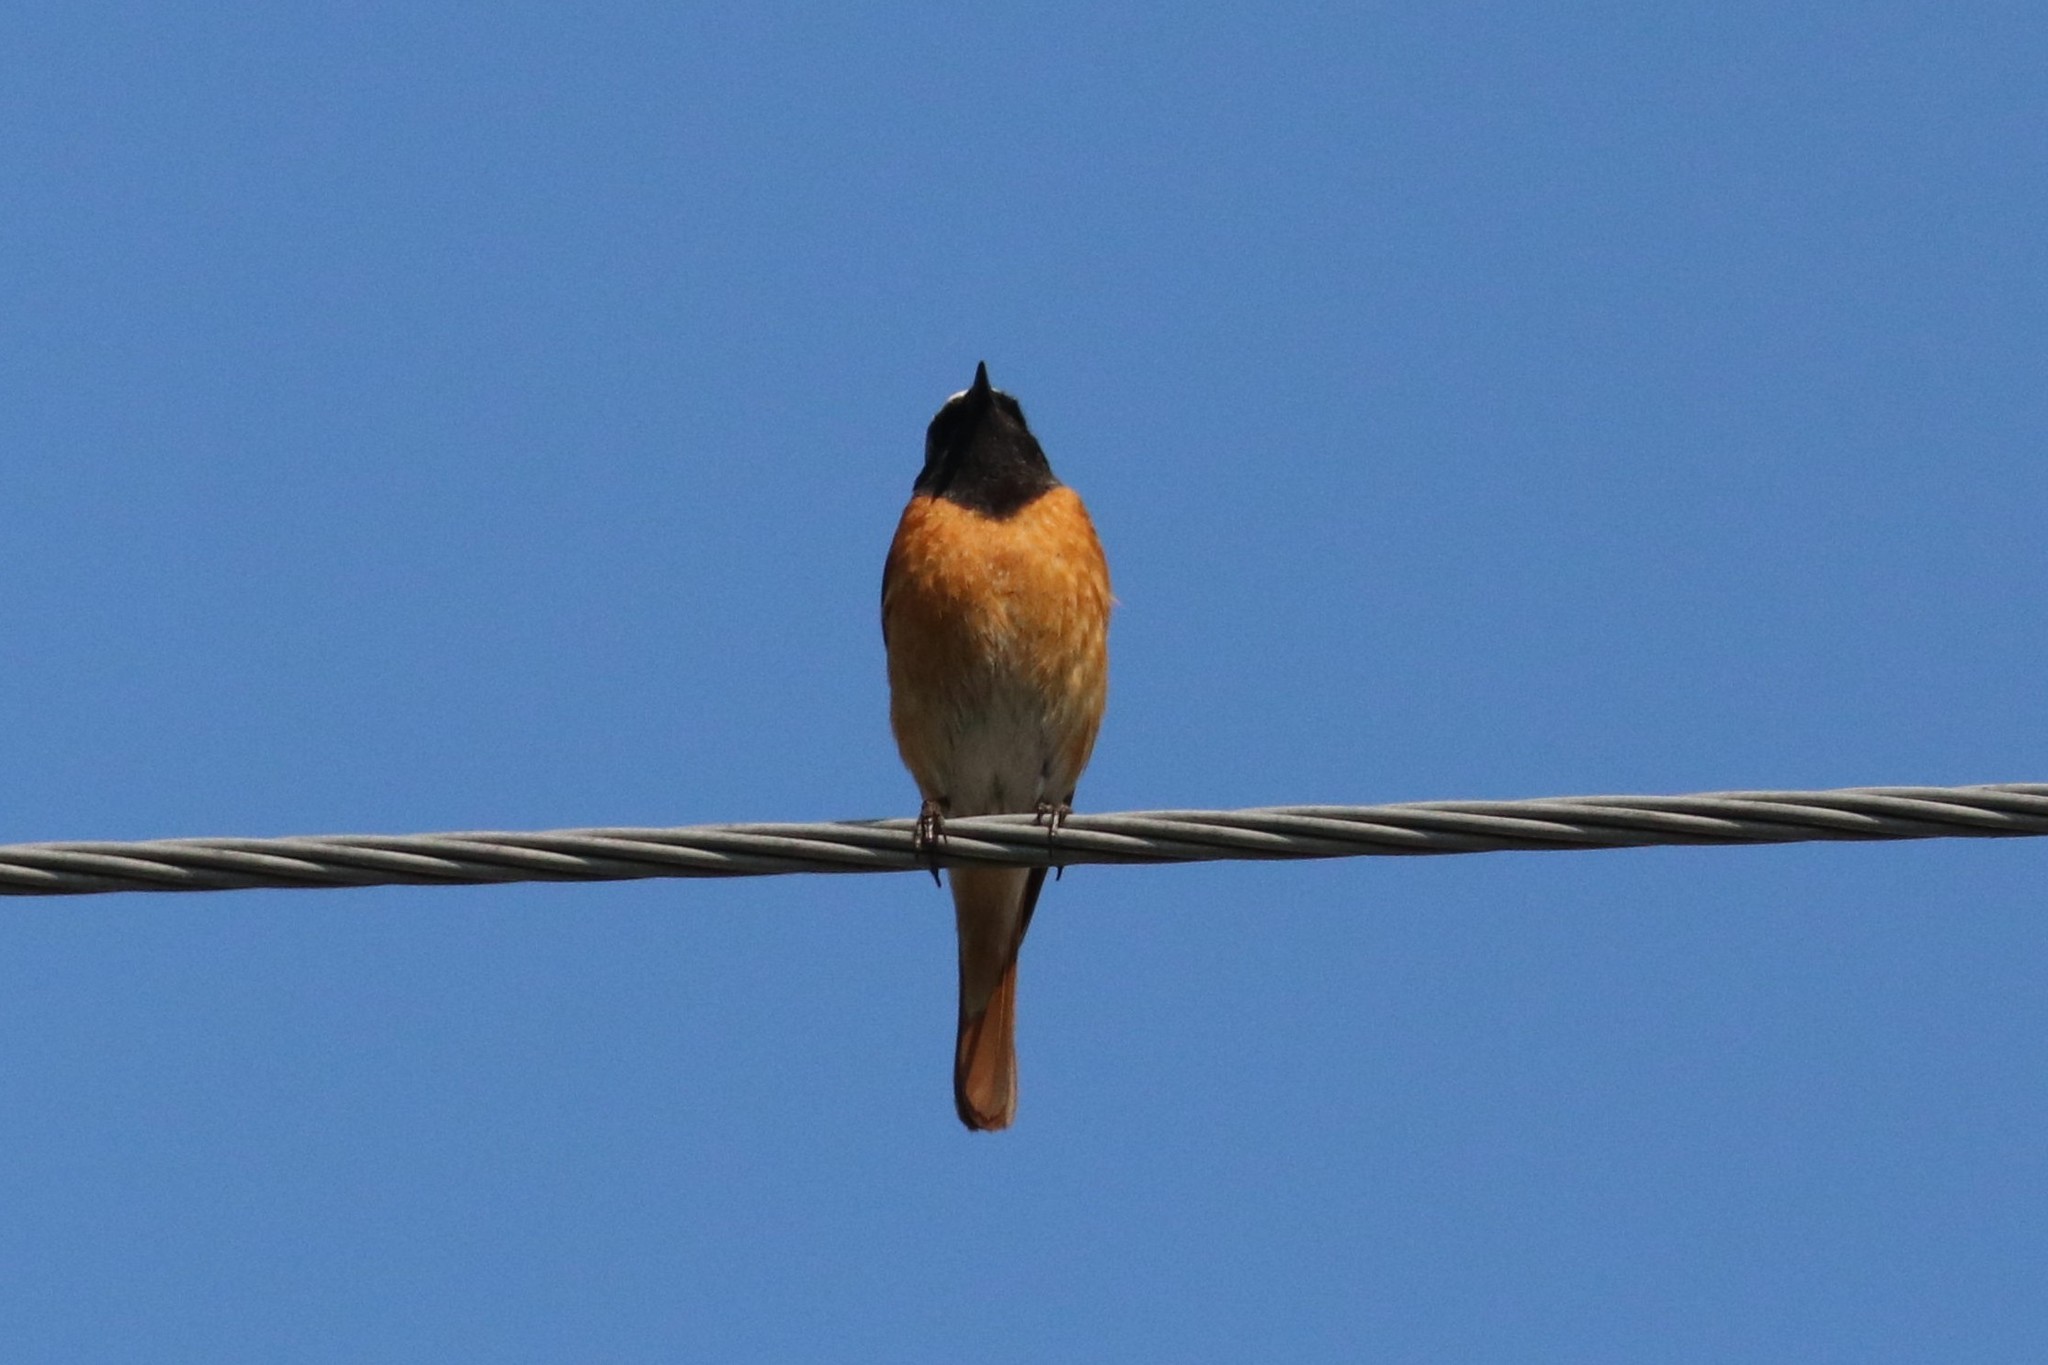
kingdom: Animalia
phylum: Chordata
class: Aves
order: Passeriformes
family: Muscicapidae
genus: Phoenicurus
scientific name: Phoenicurus phoenicurus
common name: Common redstart
